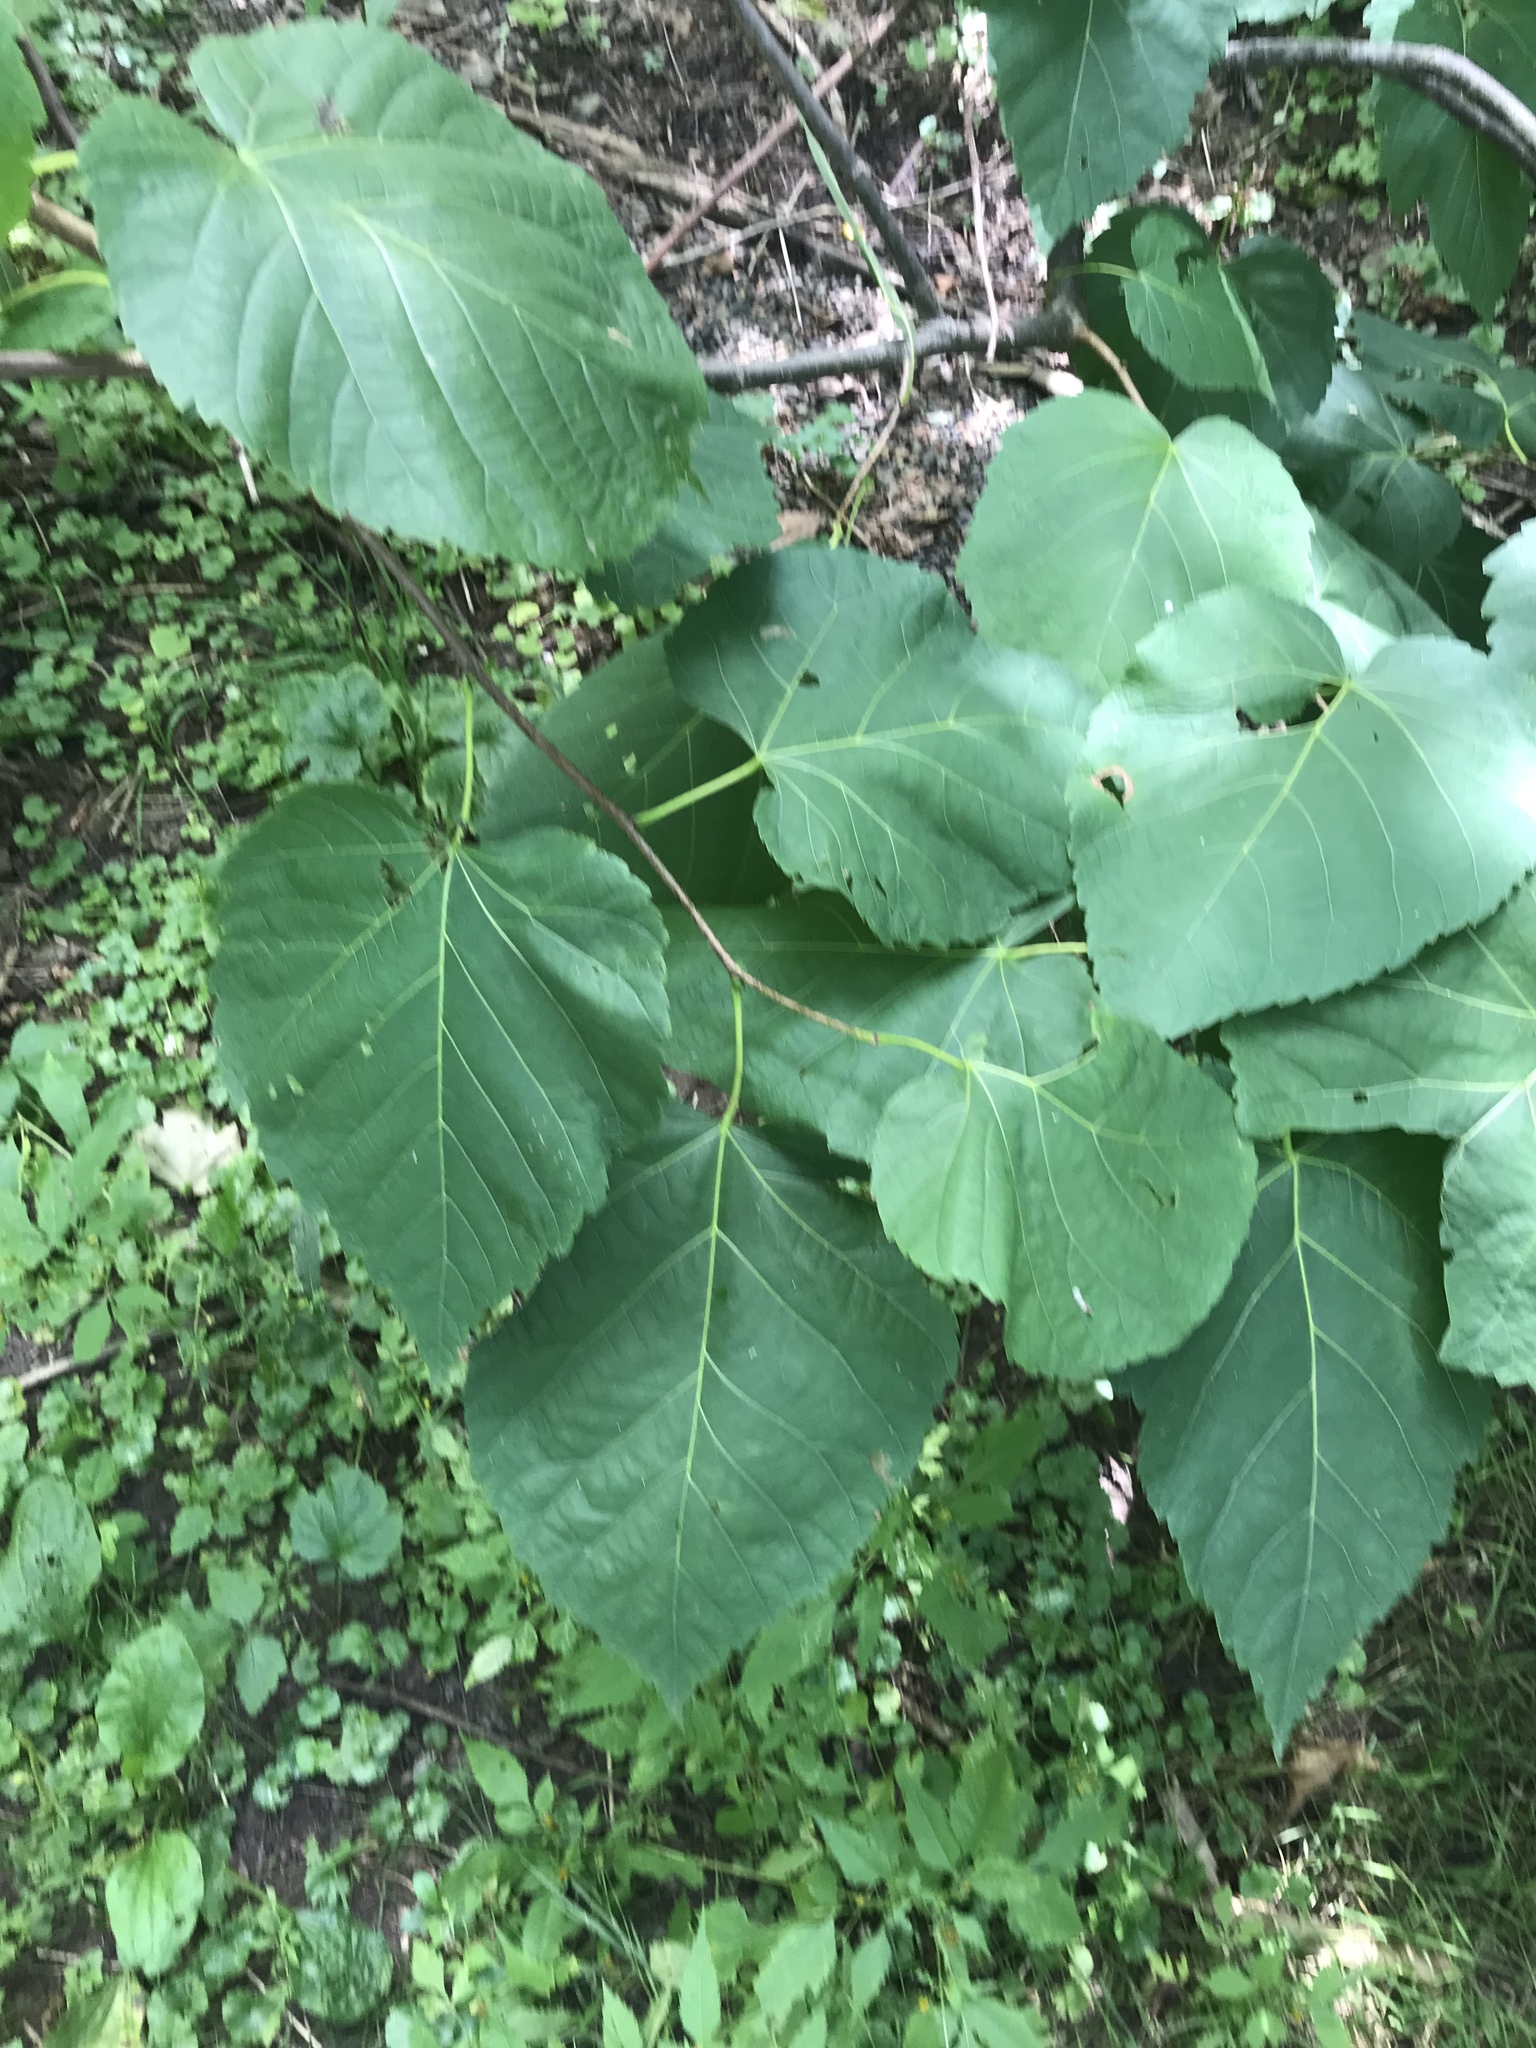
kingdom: Plantae
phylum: Tracheophyta
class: Magnoliopsida
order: Malvales
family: Malvaceae
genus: Tilia
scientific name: Tilia americana
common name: Basswood
